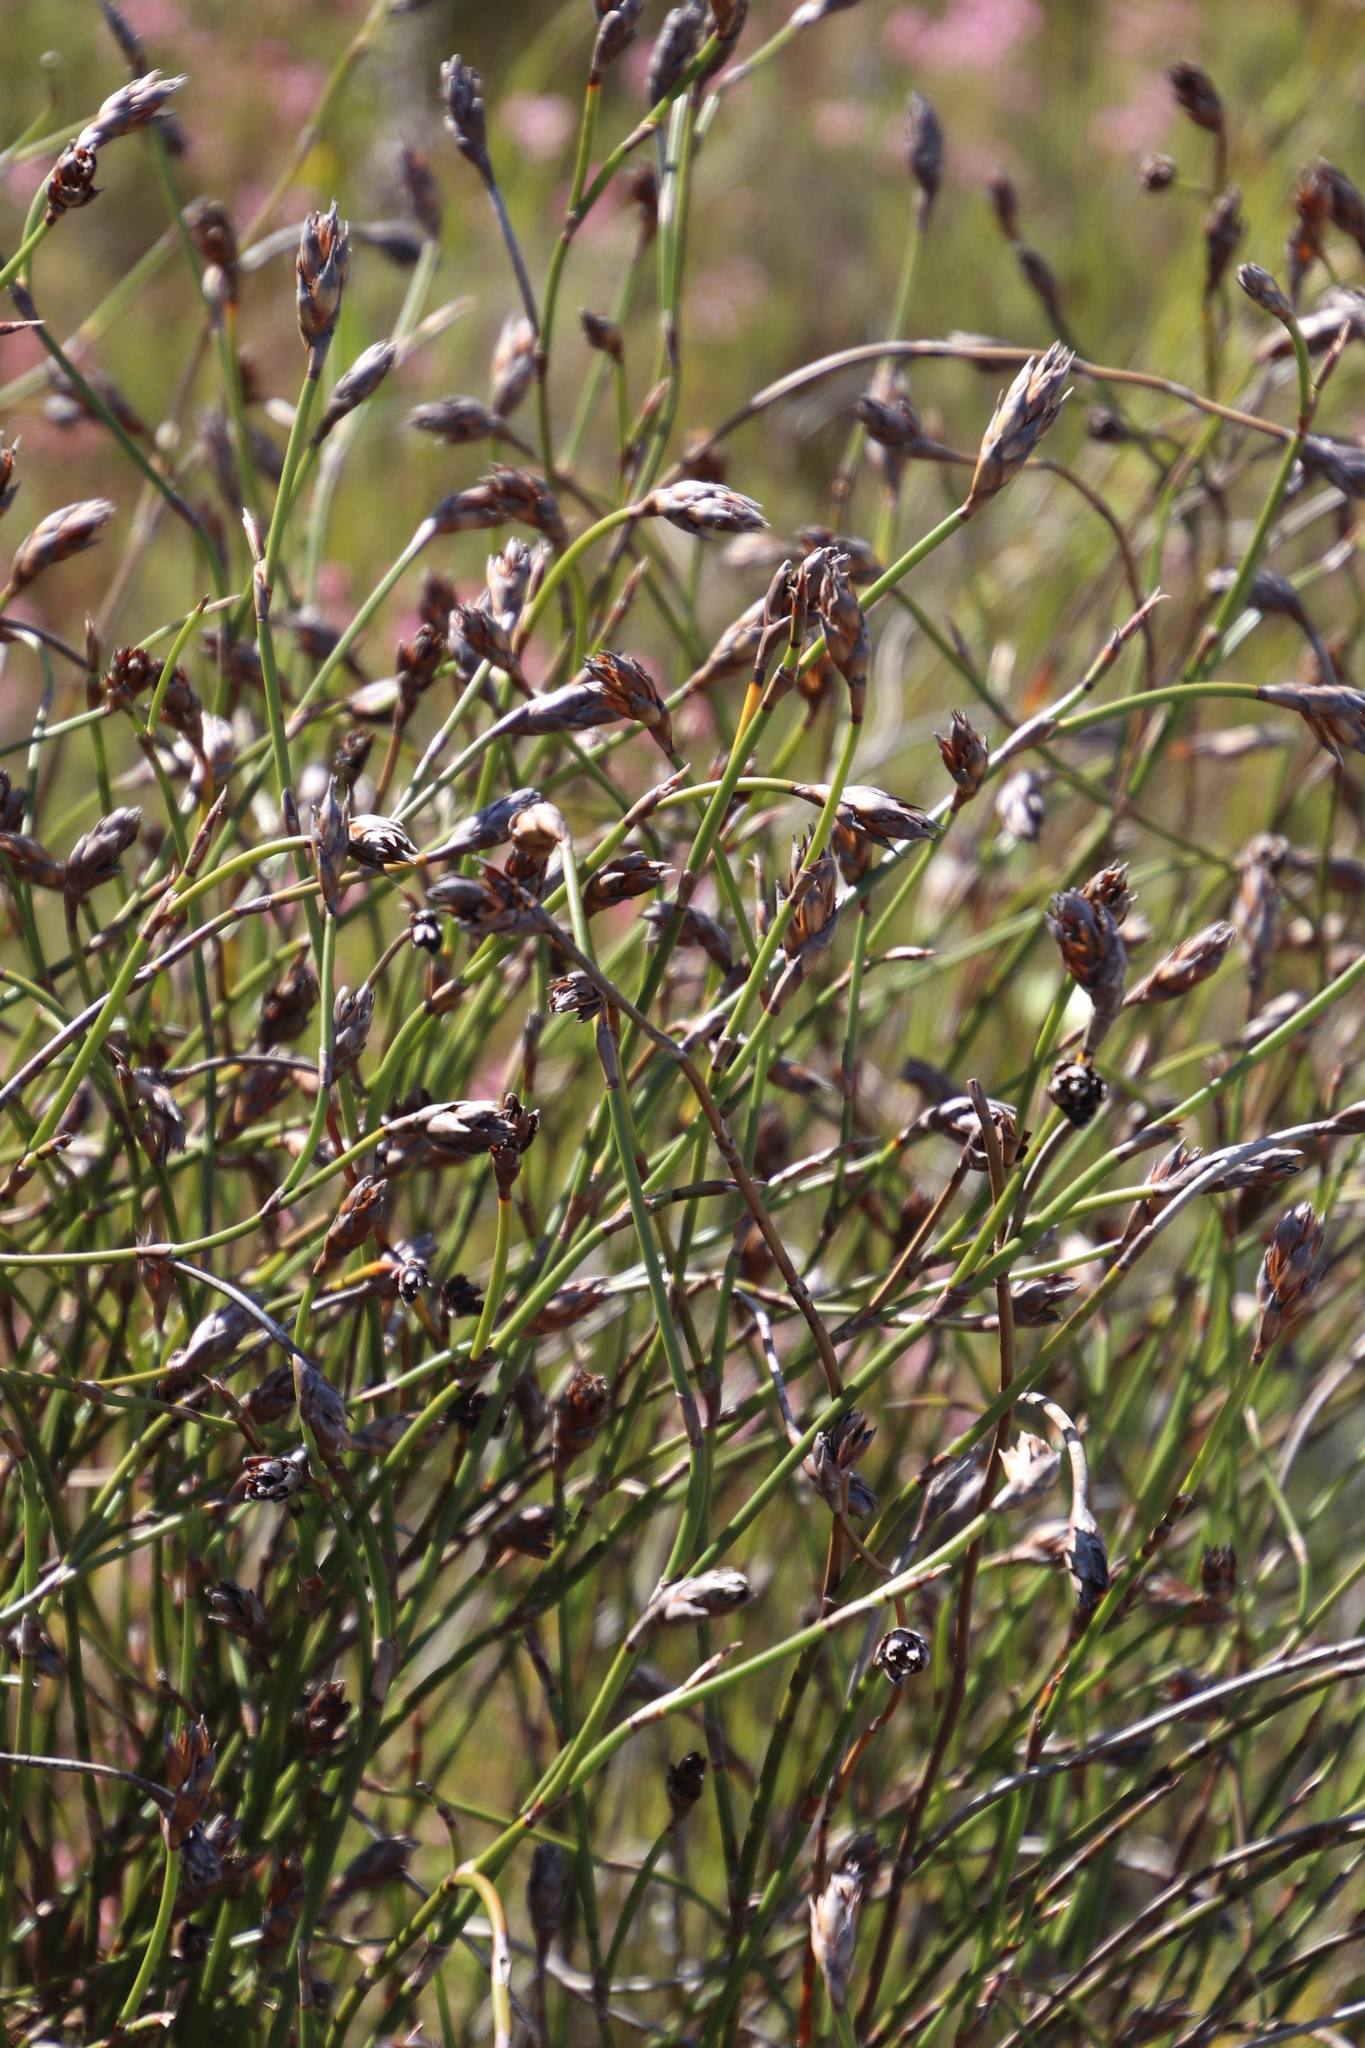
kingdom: Plantae
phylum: Tracheophyta
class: Liliopsida
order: Poales
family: Restionaceae
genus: Restio
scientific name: Restio egregius
